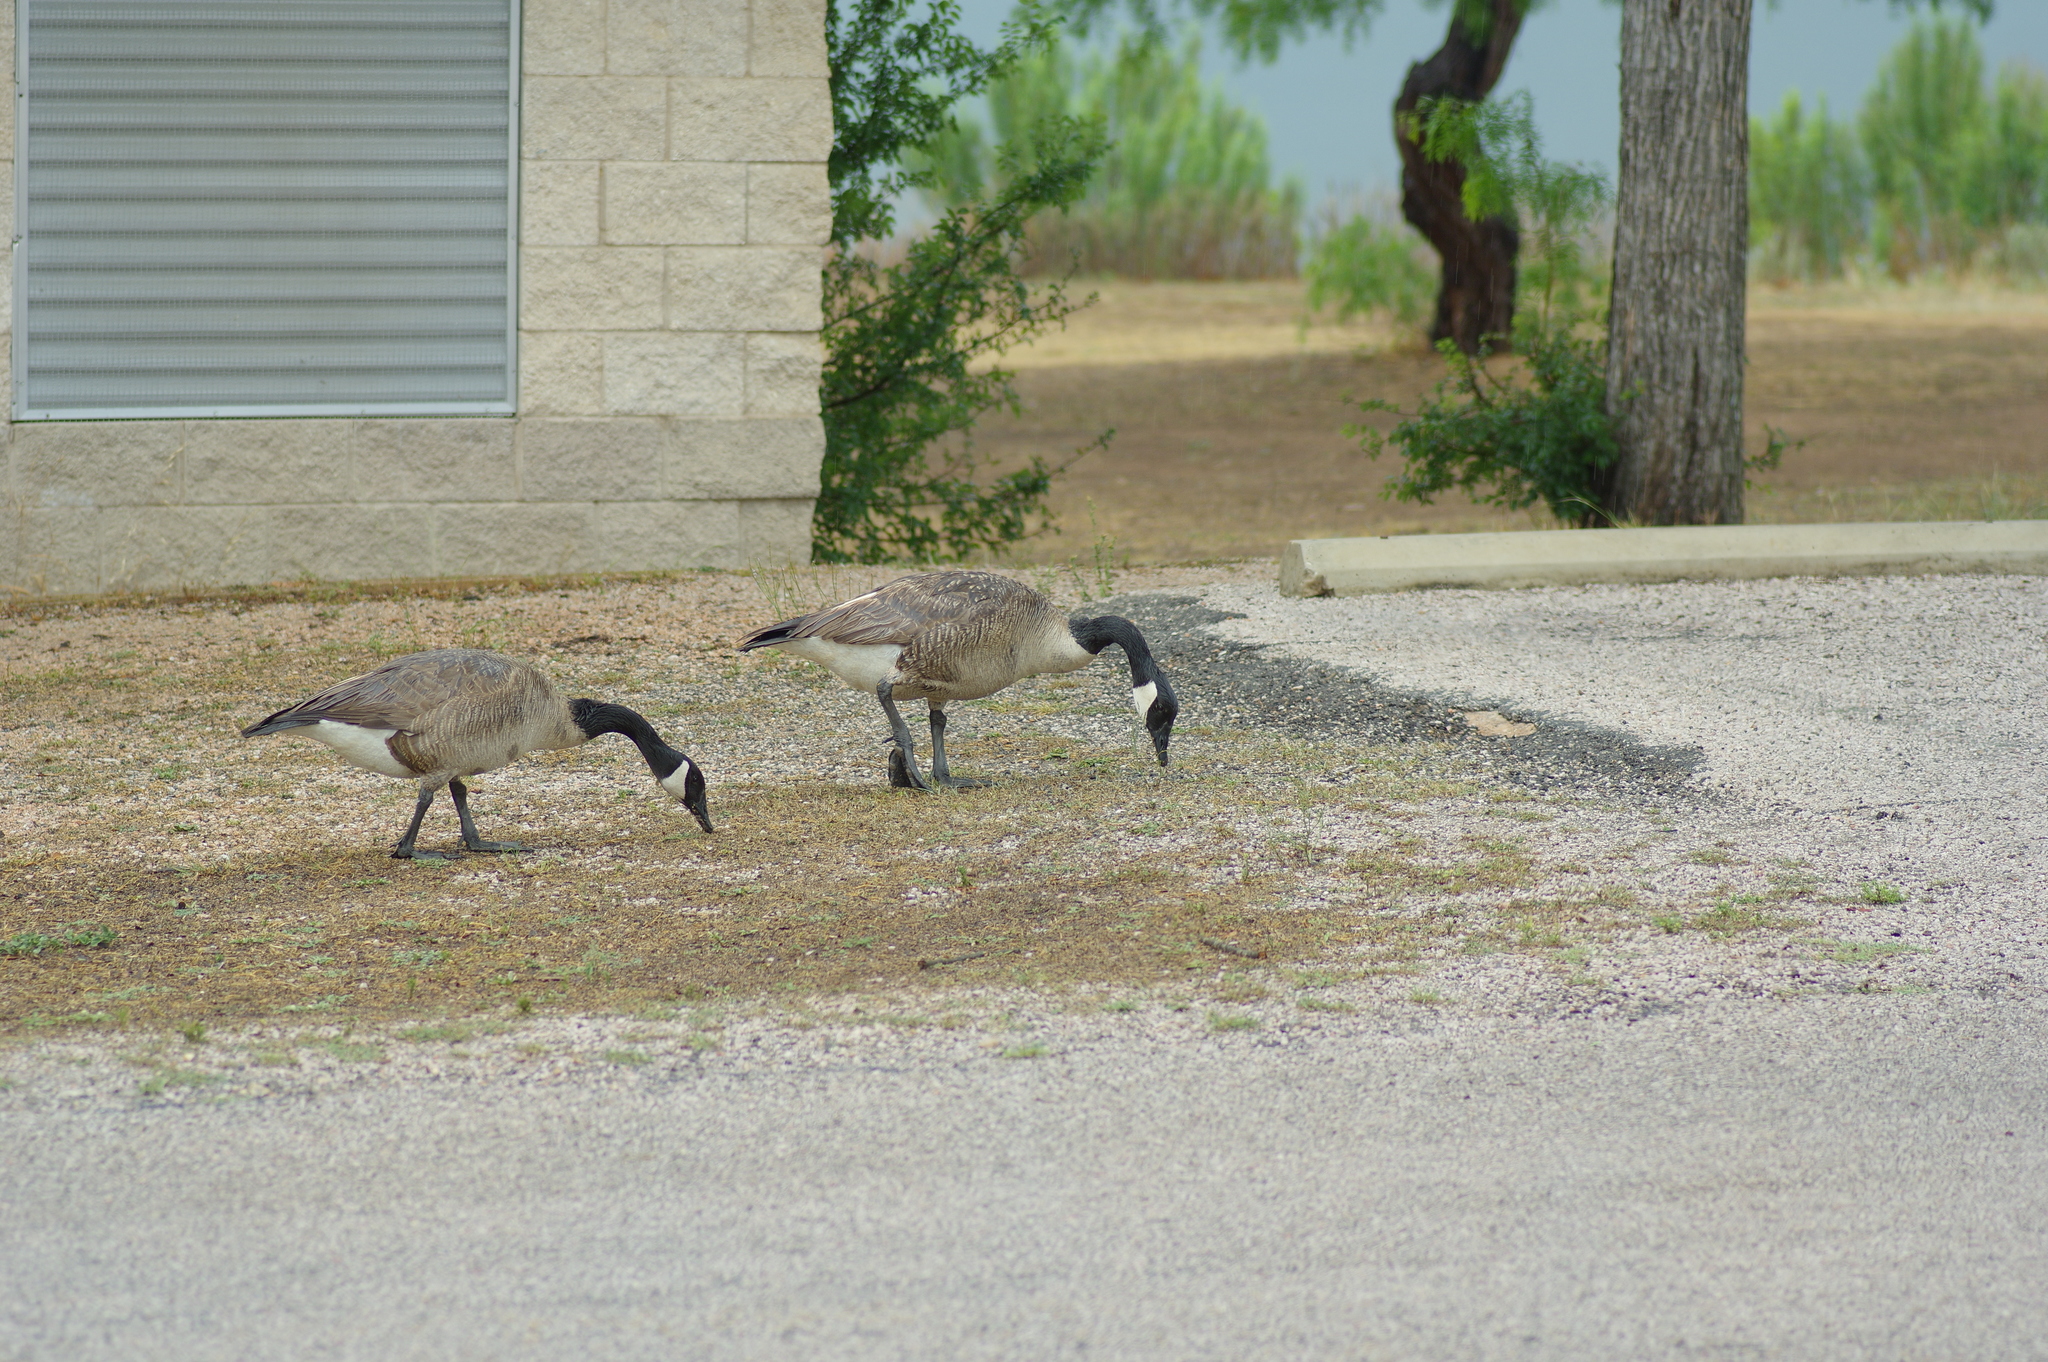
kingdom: Animalia
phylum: Chordata
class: Aves
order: Anseriformes
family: Anatidae
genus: Branta
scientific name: Branta canadensis
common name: Canada goose
